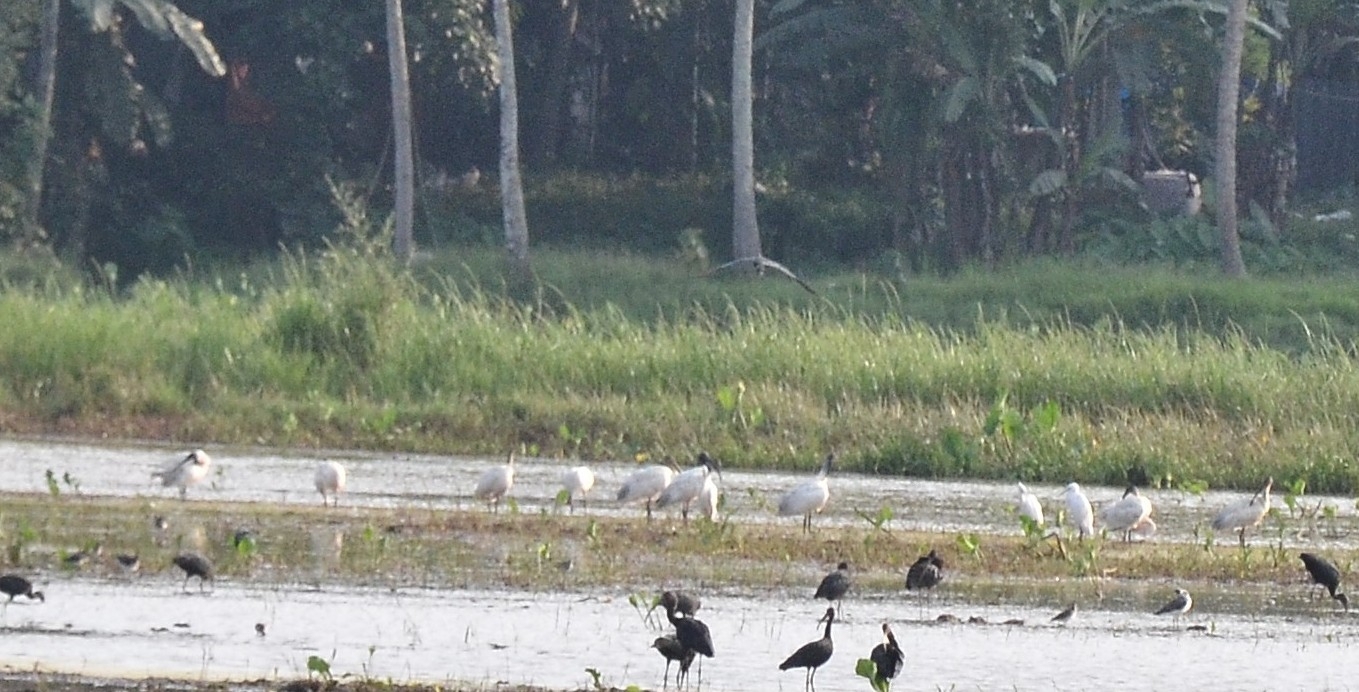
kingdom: Animalia
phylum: Chordata
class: Aves
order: Pelecaniformes
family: Threskiornithidae
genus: Threskiornis
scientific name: Threskiornis melanocephalus
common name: Black-headed ibis
